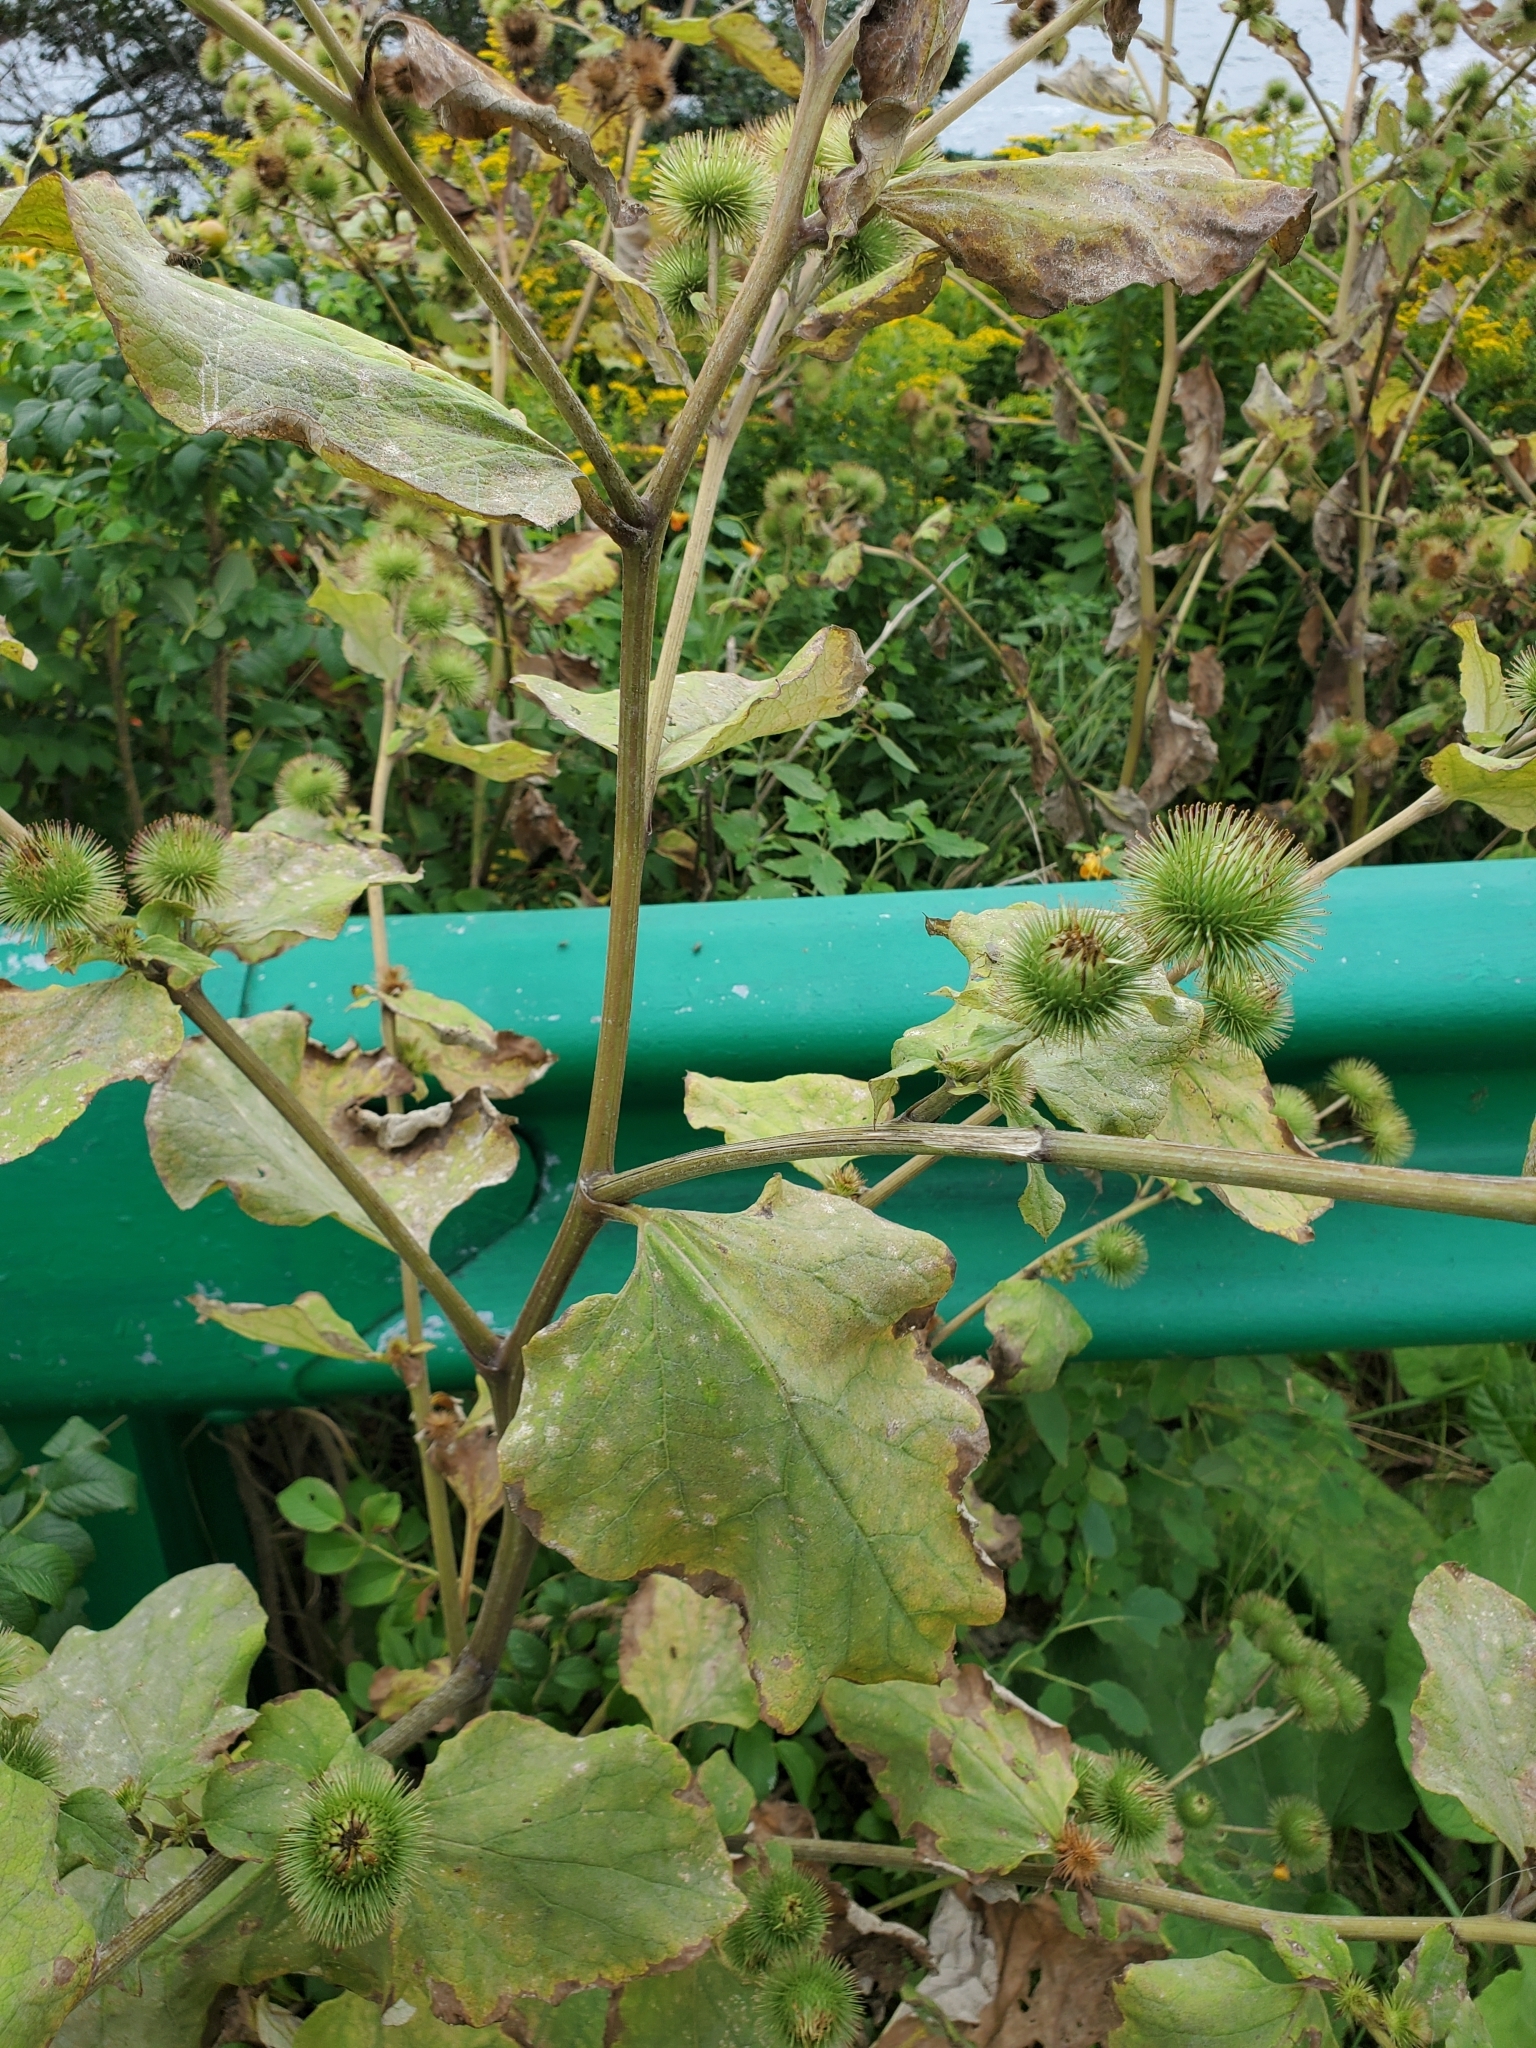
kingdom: Plantae
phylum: Tracheophyta
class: Magnoliopsida
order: Asterales
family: Asteraceae
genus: Arctium
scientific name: Arctium lappa
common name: Greater burdock
